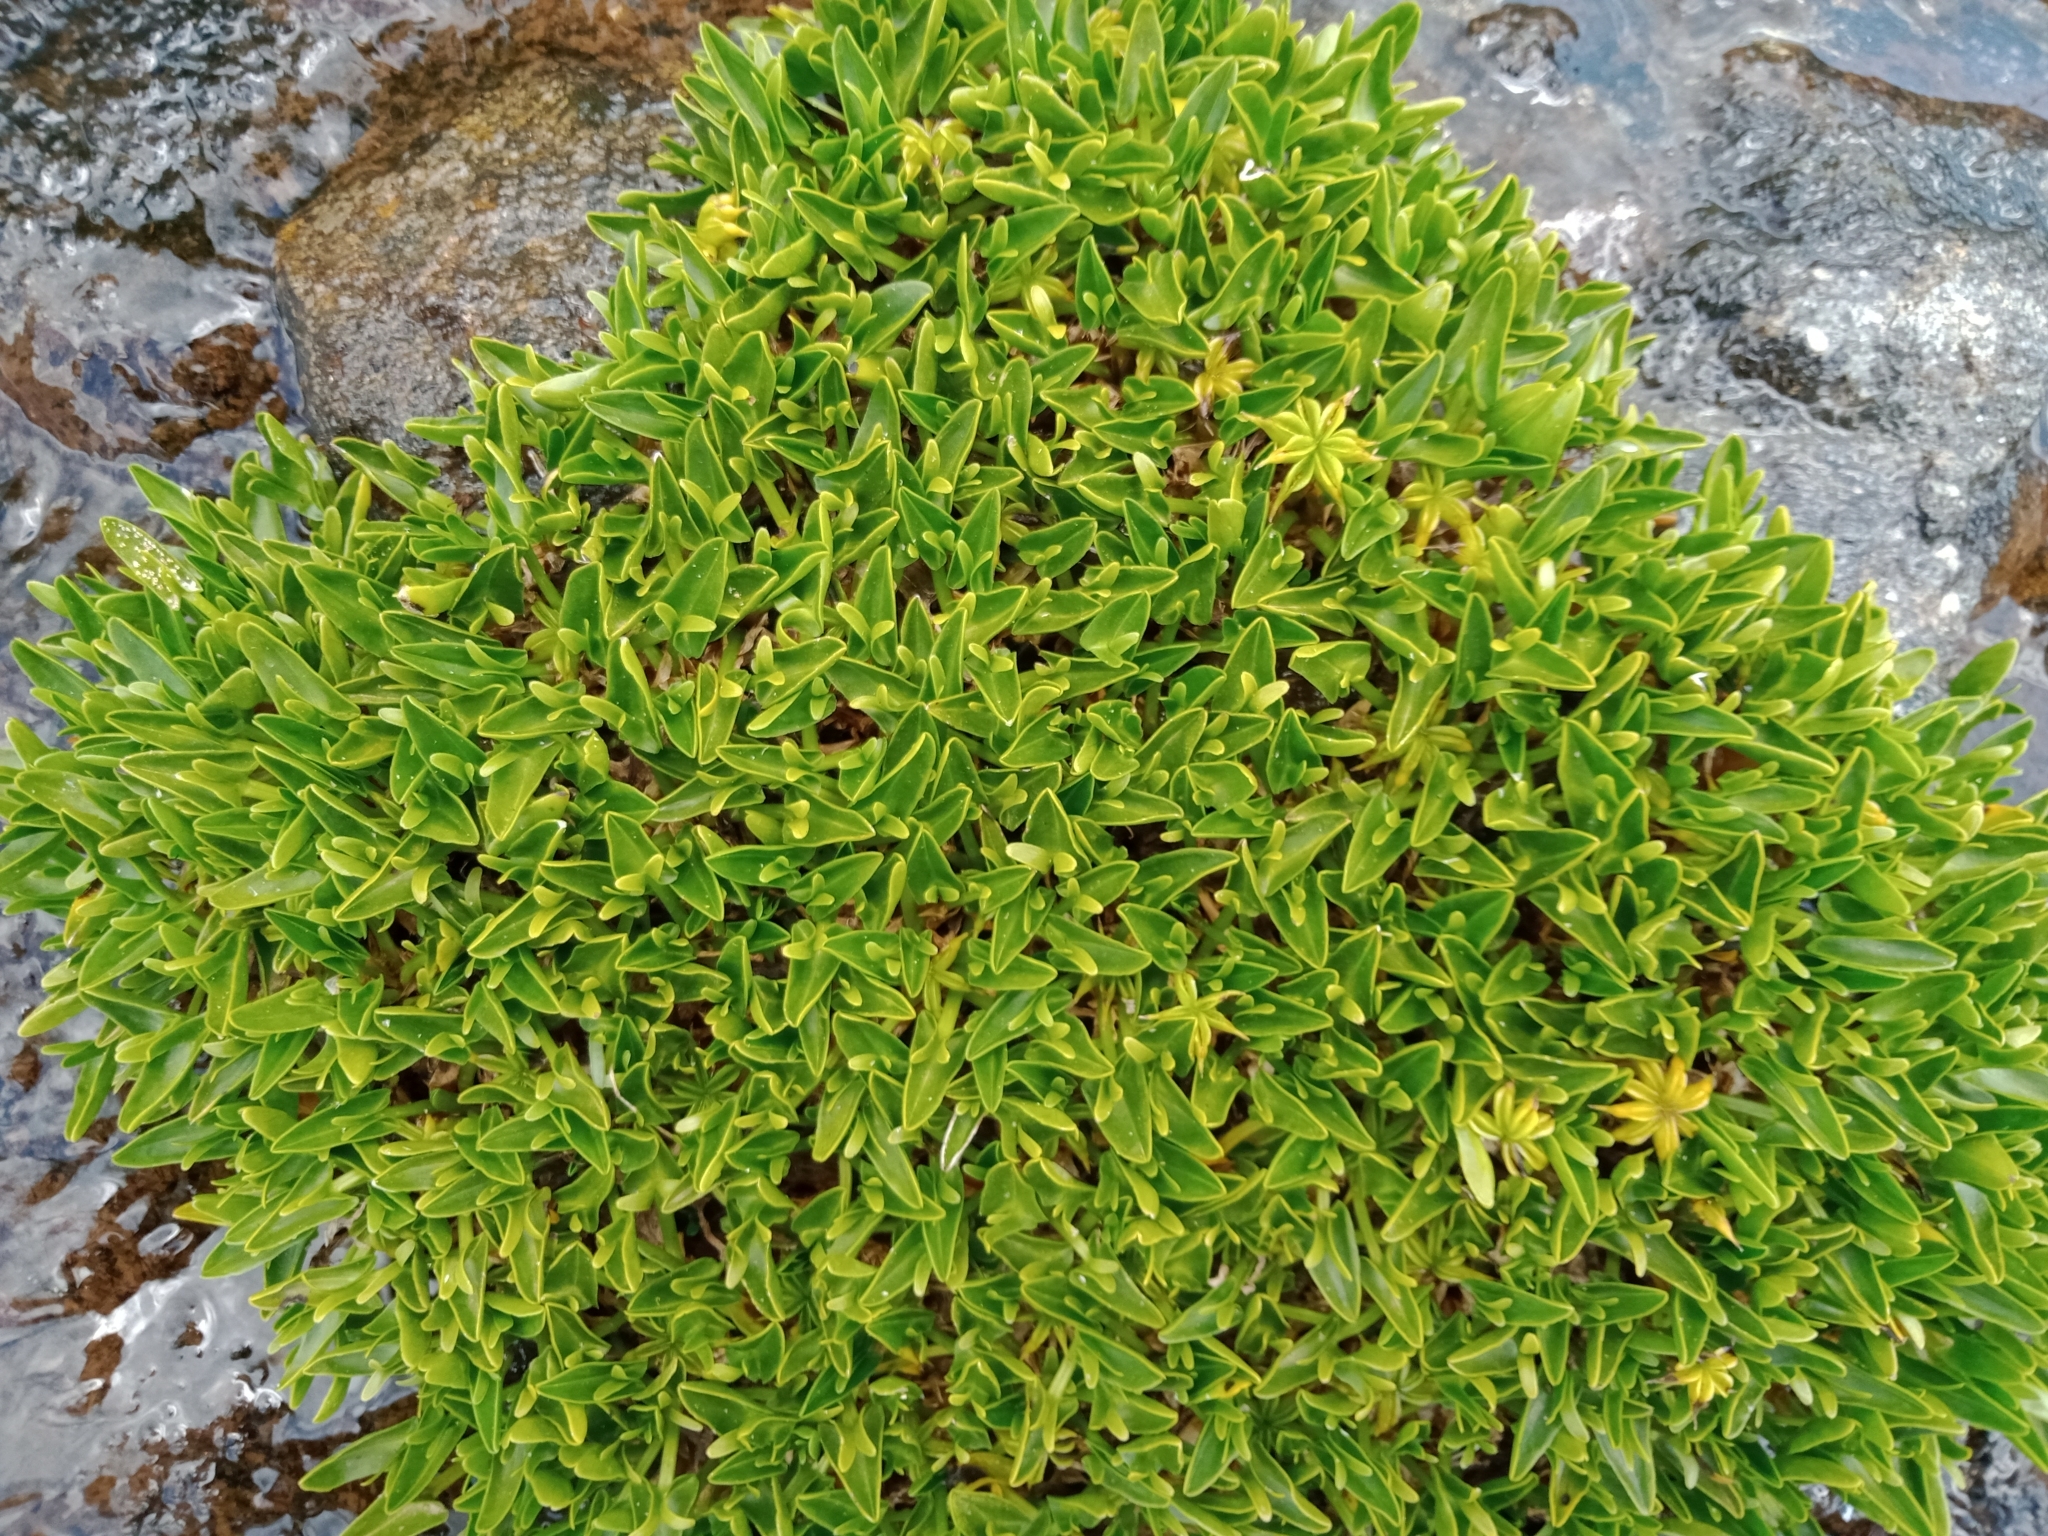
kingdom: Plantae
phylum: Tracheophyta
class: Magnoliopsida
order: Ranunculales
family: Ranunculaceae
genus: Caltha
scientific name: Caltha introloba
